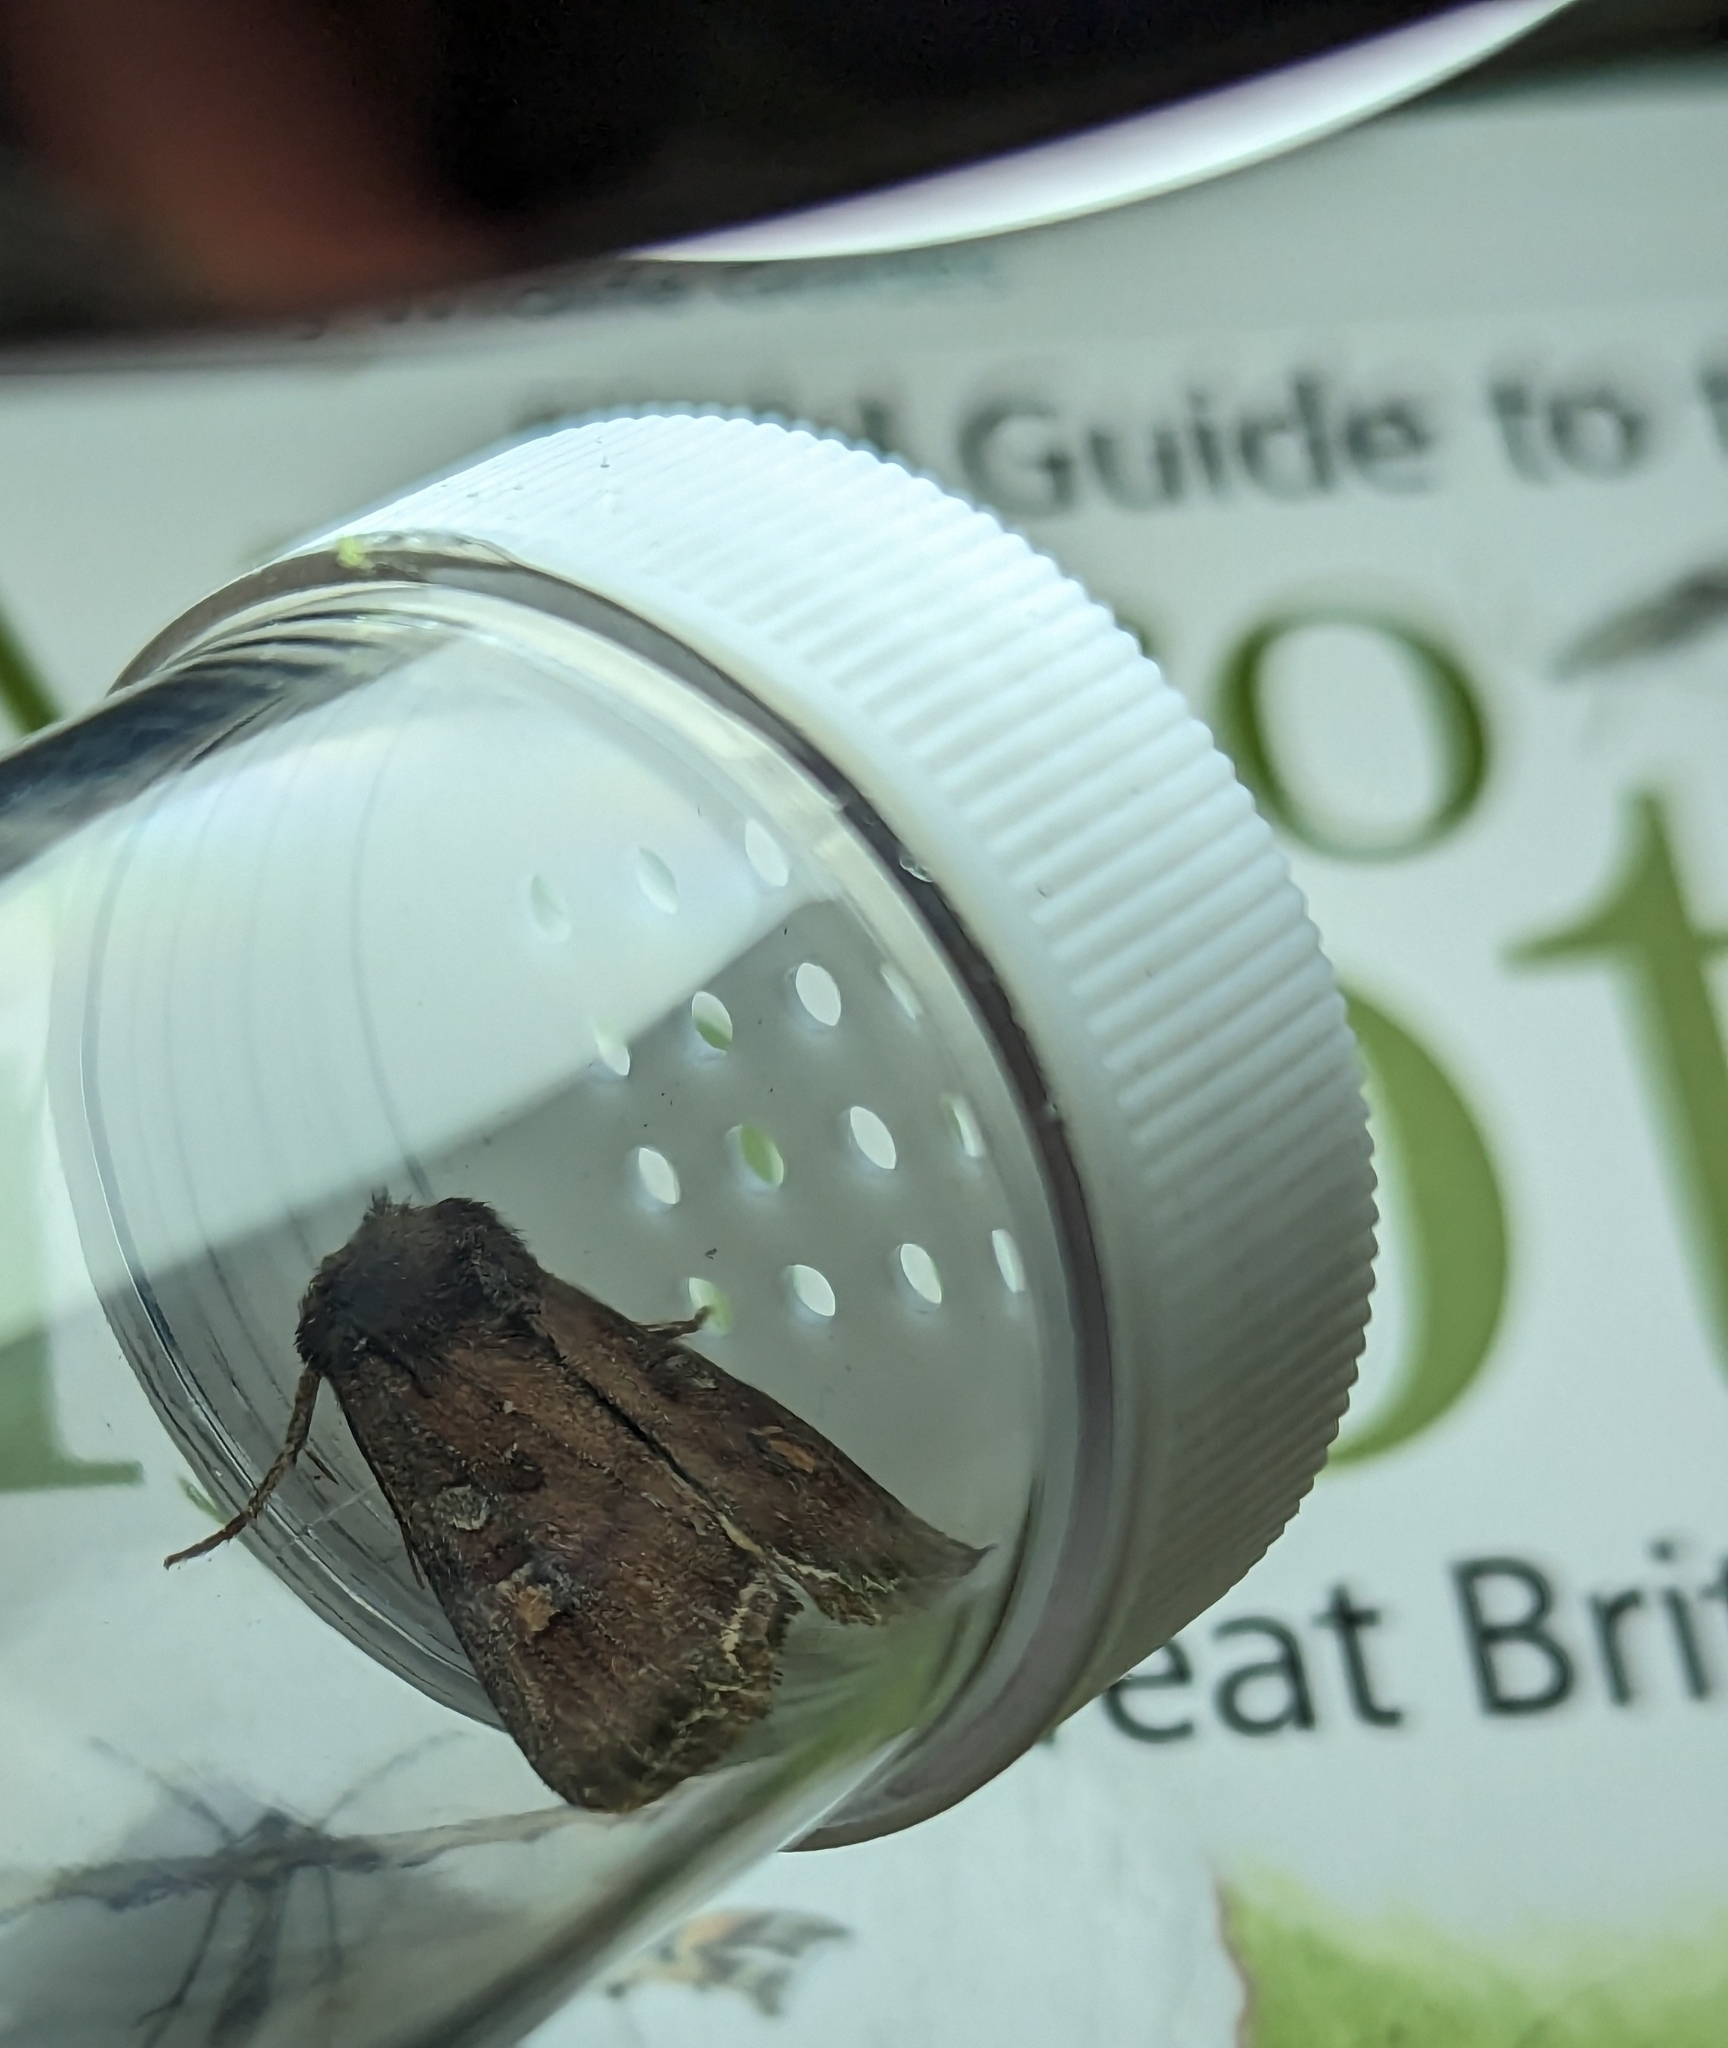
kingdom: Animalia
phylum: Arthropoda
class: Insecta
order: Lepidoptera
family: Noctuidae
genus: Lacanobia
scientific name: Lacanobia oleracea
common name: Bright-line brown-eye
